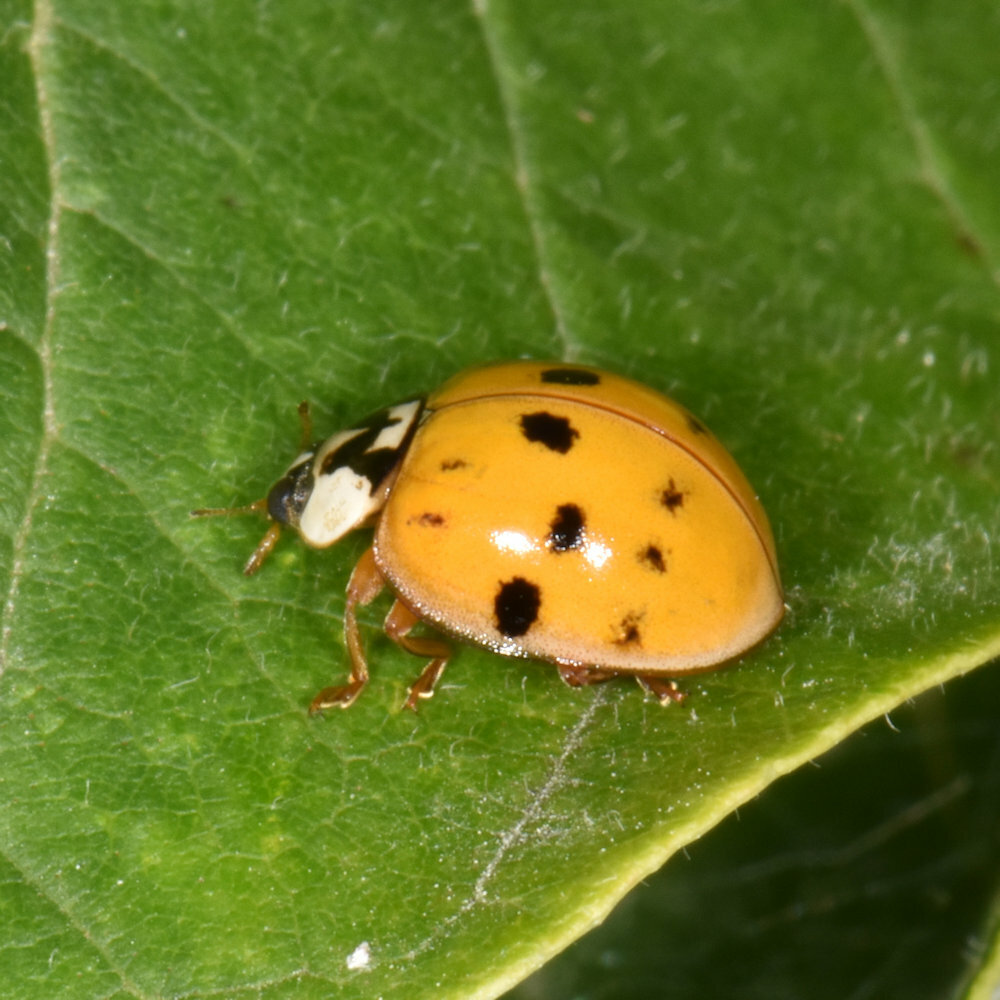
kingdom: Animalia
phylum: Arthropoda
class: Insecta
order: Coleoptera
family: Coccinellidae
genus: Harmonia
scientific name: Harmonia axyridis
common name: Harlequin ladybird
